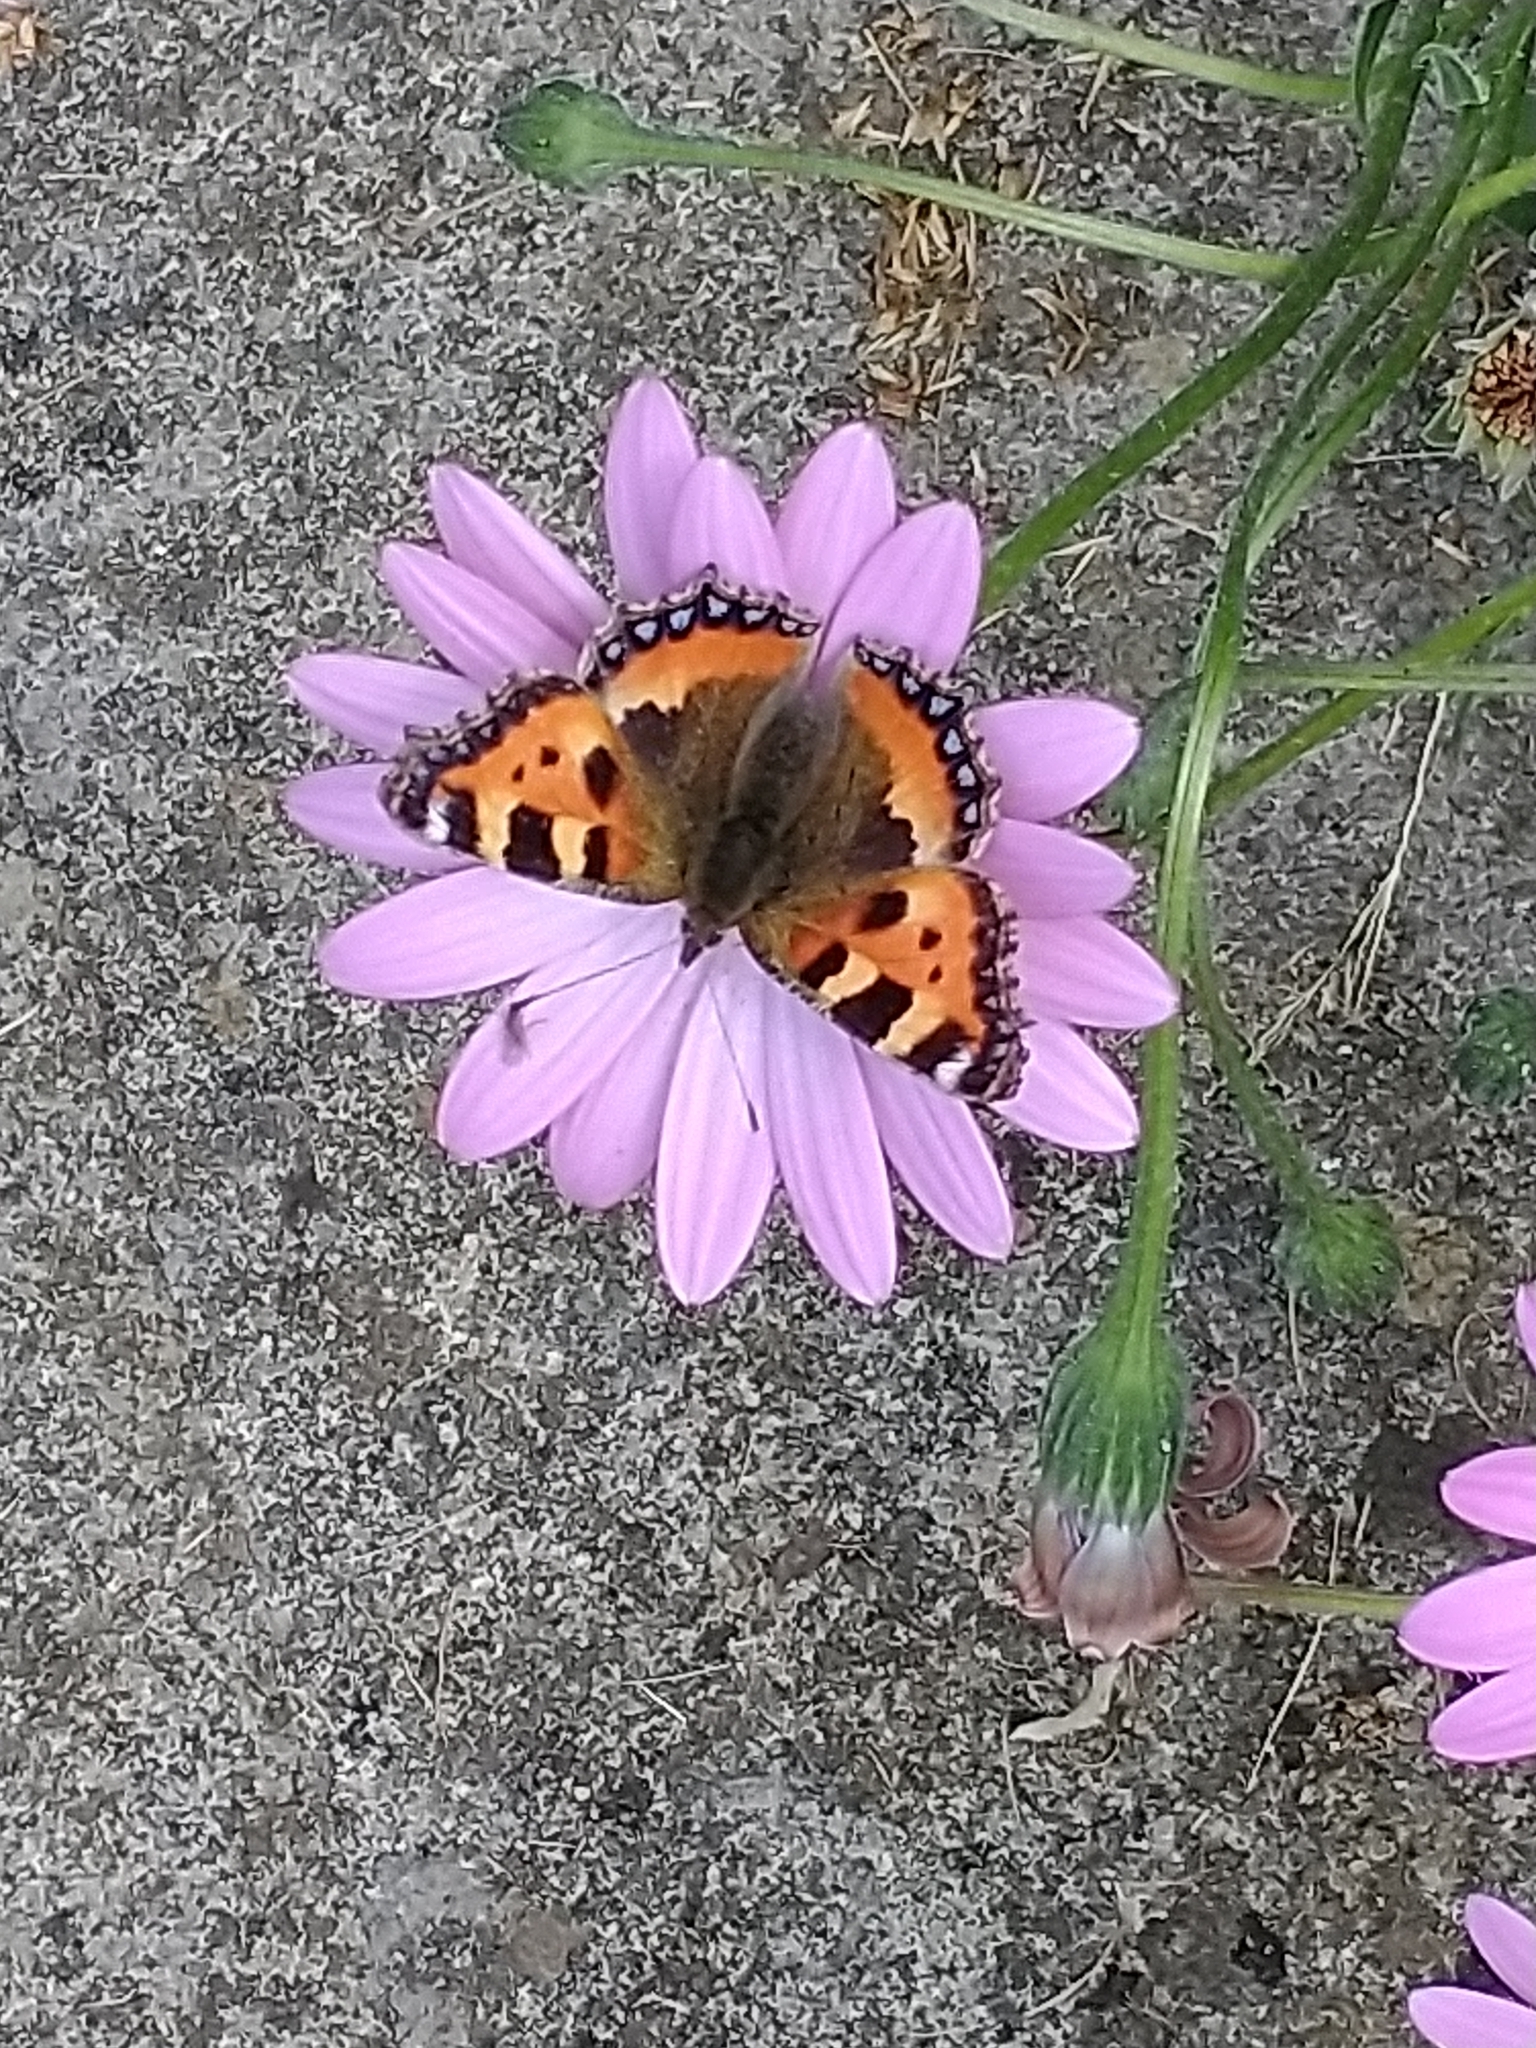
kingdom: Animalia
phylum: Arthropoda
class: Insecta
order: Lepidoptera
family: Nymphalidae
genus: Aglais
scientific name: Aglais urticae
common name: Small tortoiseshell
